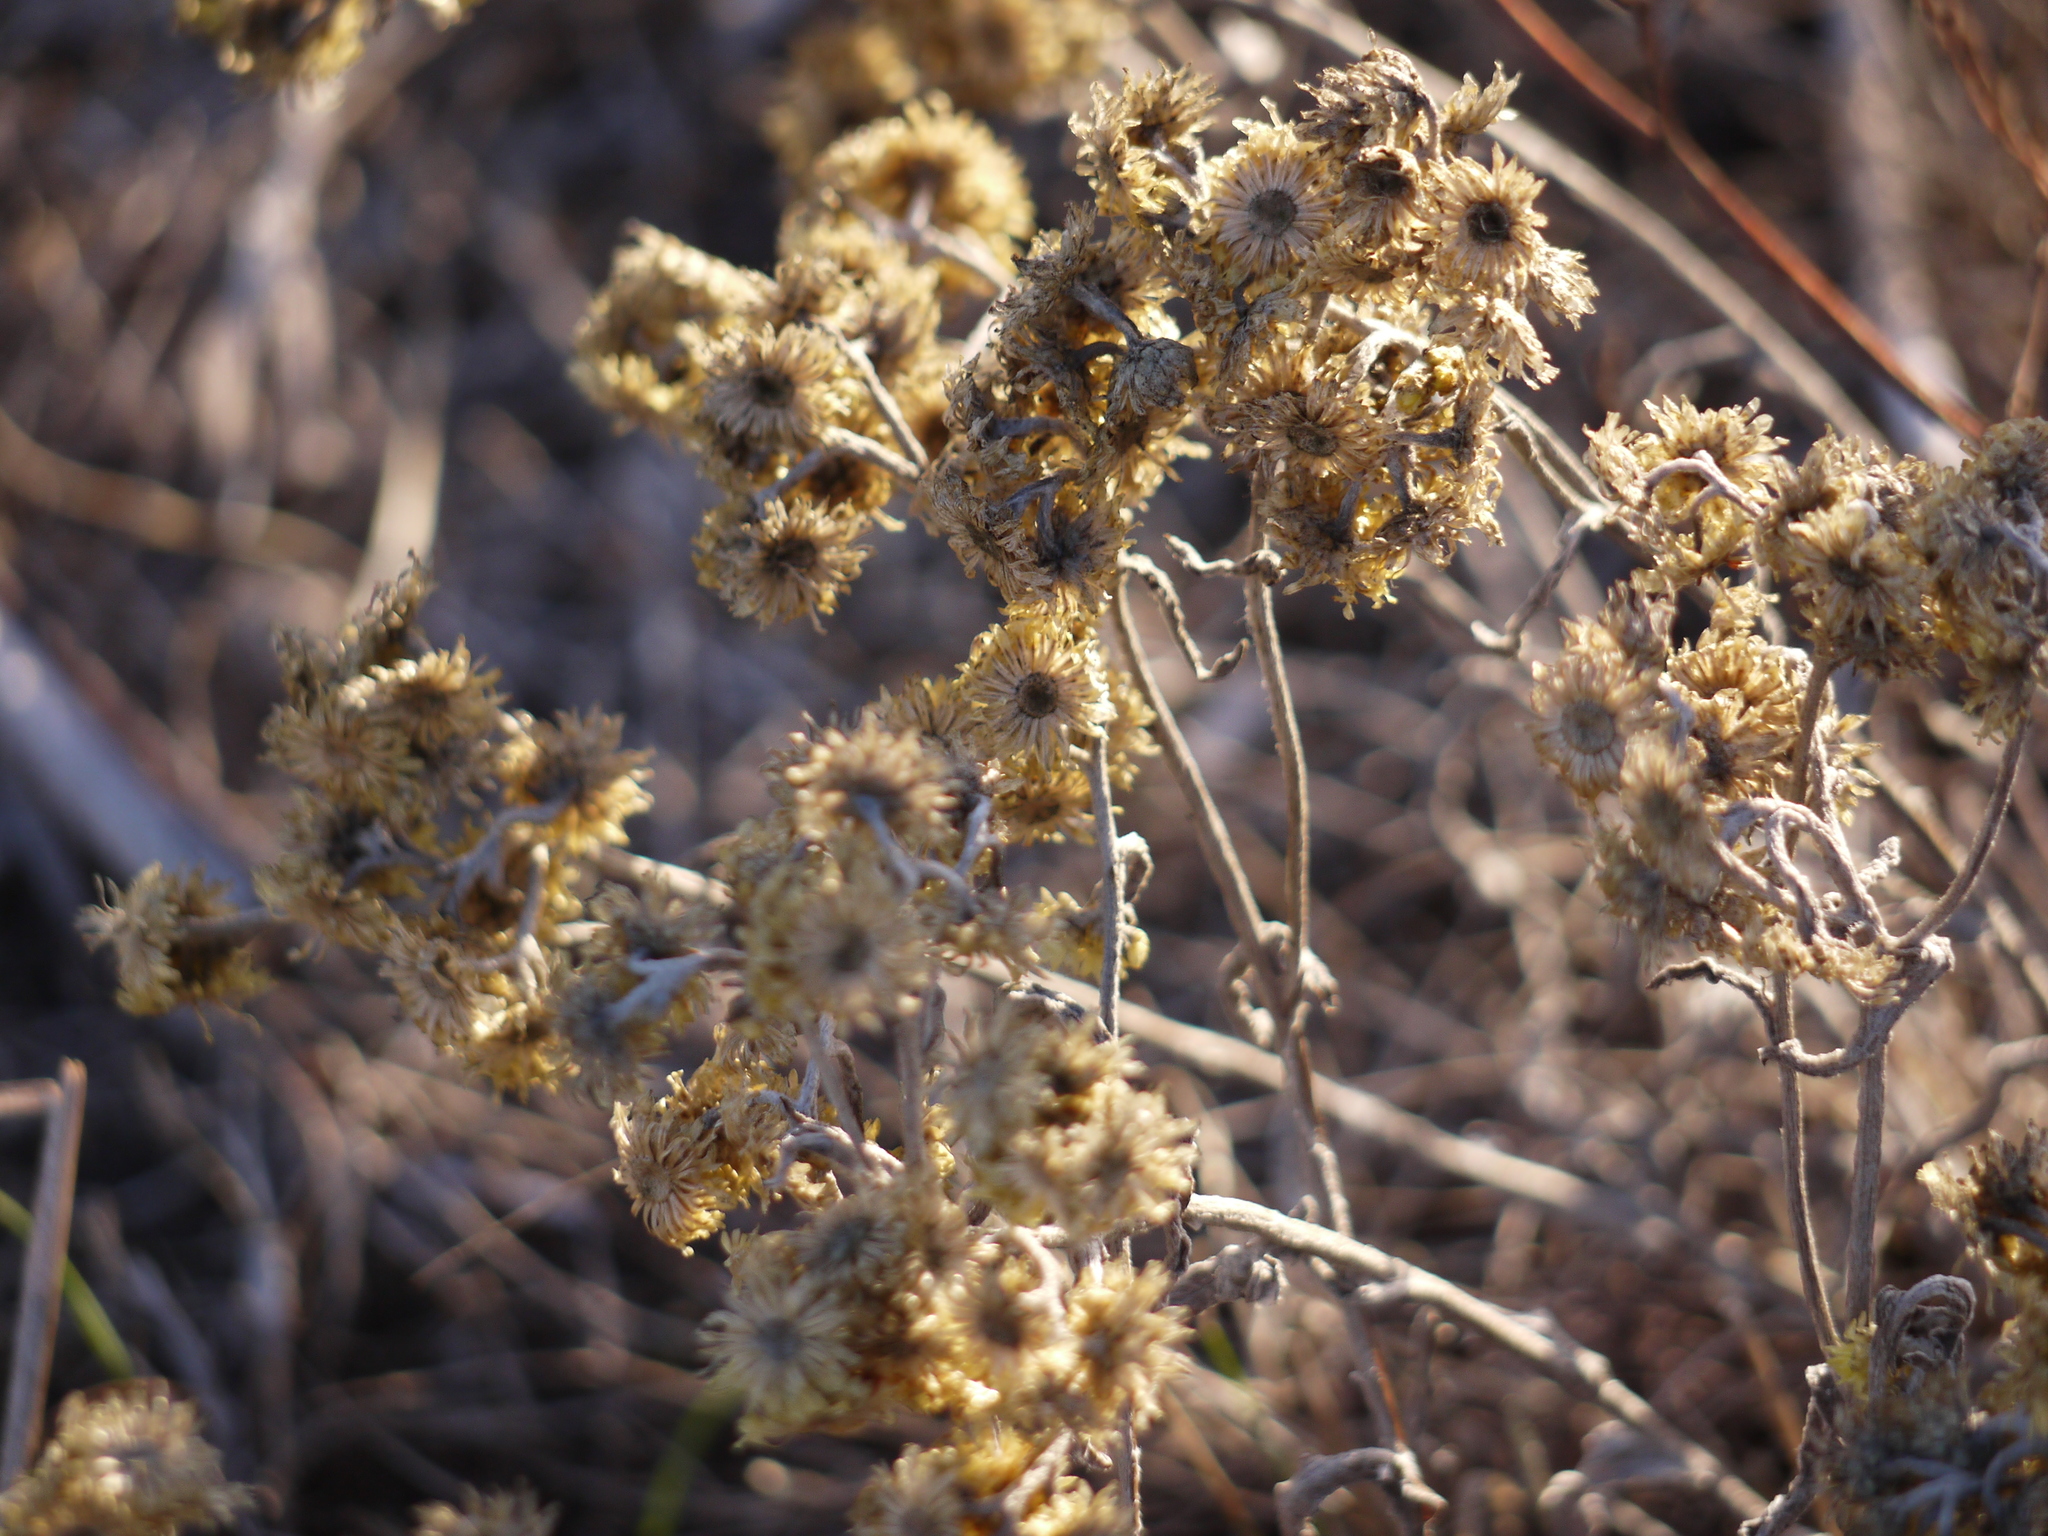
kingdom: Plantae
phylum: Tracheophyta
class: Magnoliopsida
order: Asterales
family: Asteraceae
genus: Helichrysum
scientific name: Helichrysum arenarium
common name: Strawflower
